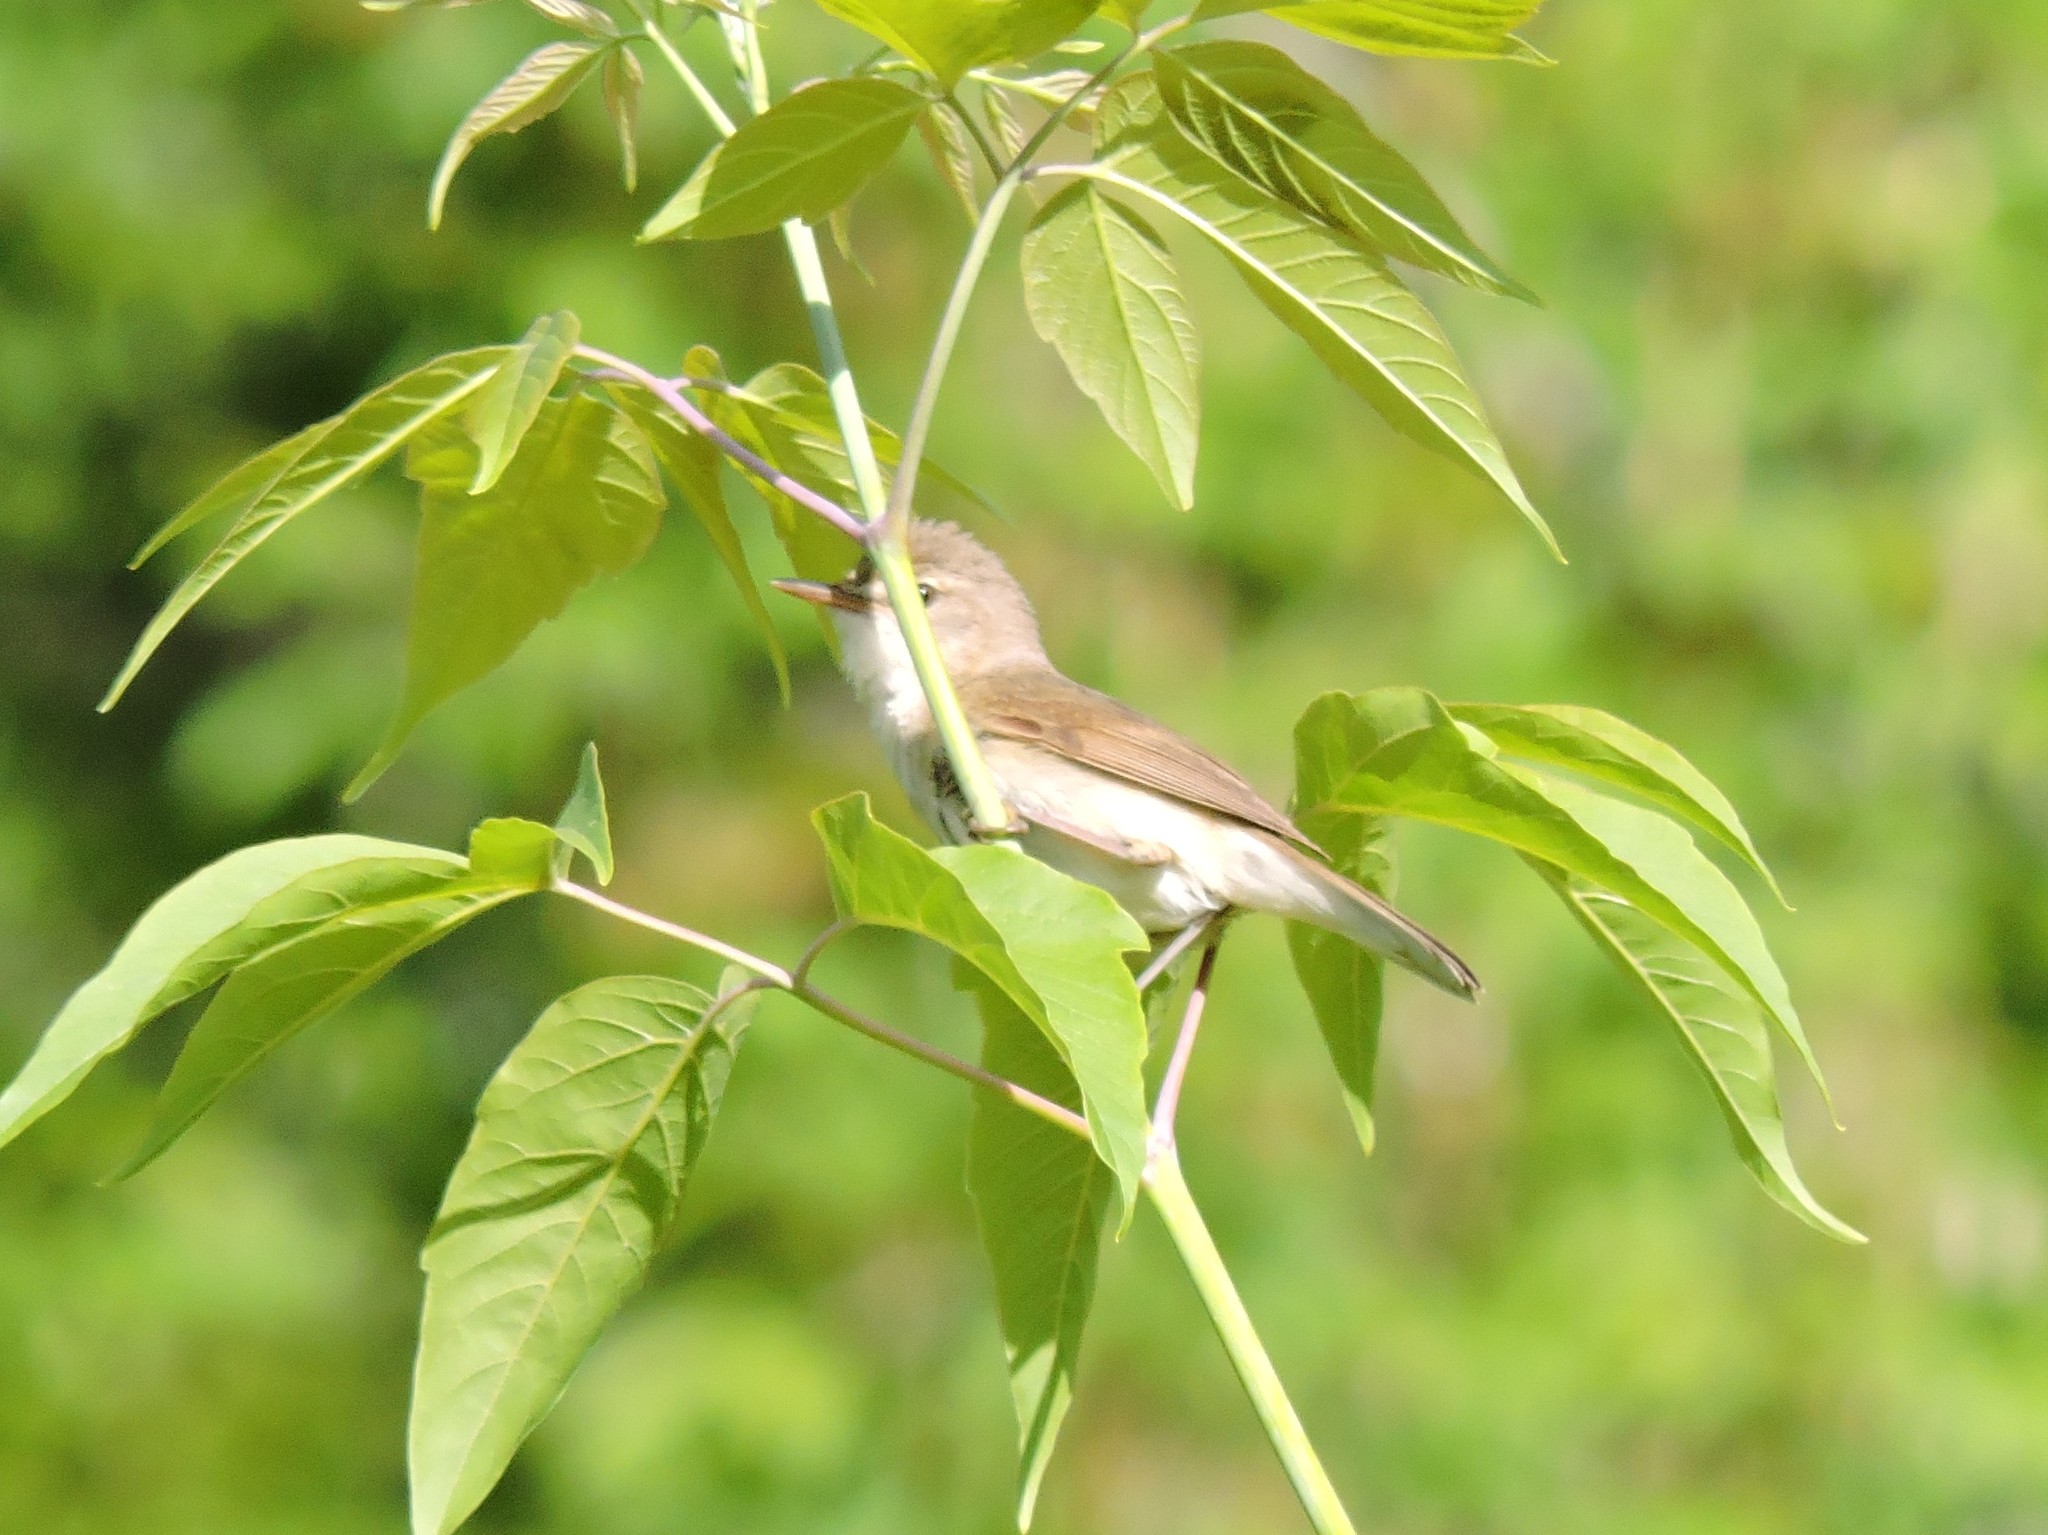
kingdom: Animalia
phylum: Chordata
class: Aves
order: Passeriformes
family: Acrocephalidae
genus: Acrocephalus
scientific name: Acrocephalus dumetorum
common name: Blyth's reed warbler
